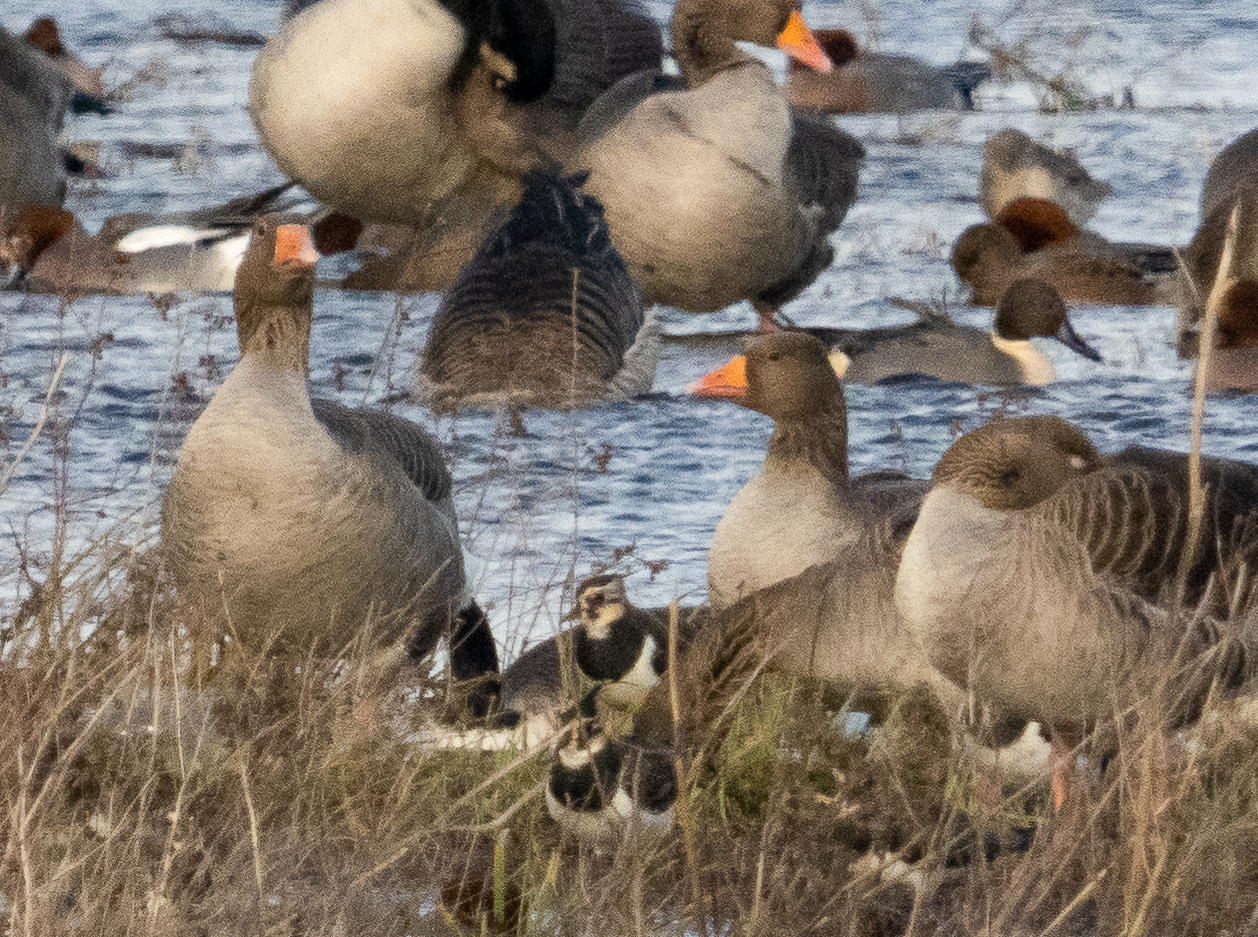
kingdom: Animalia
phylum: Chordata
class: Aves
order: Anseriformes
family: Anatidae
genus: Anser
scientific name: Anser anser
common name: Greylag goose
